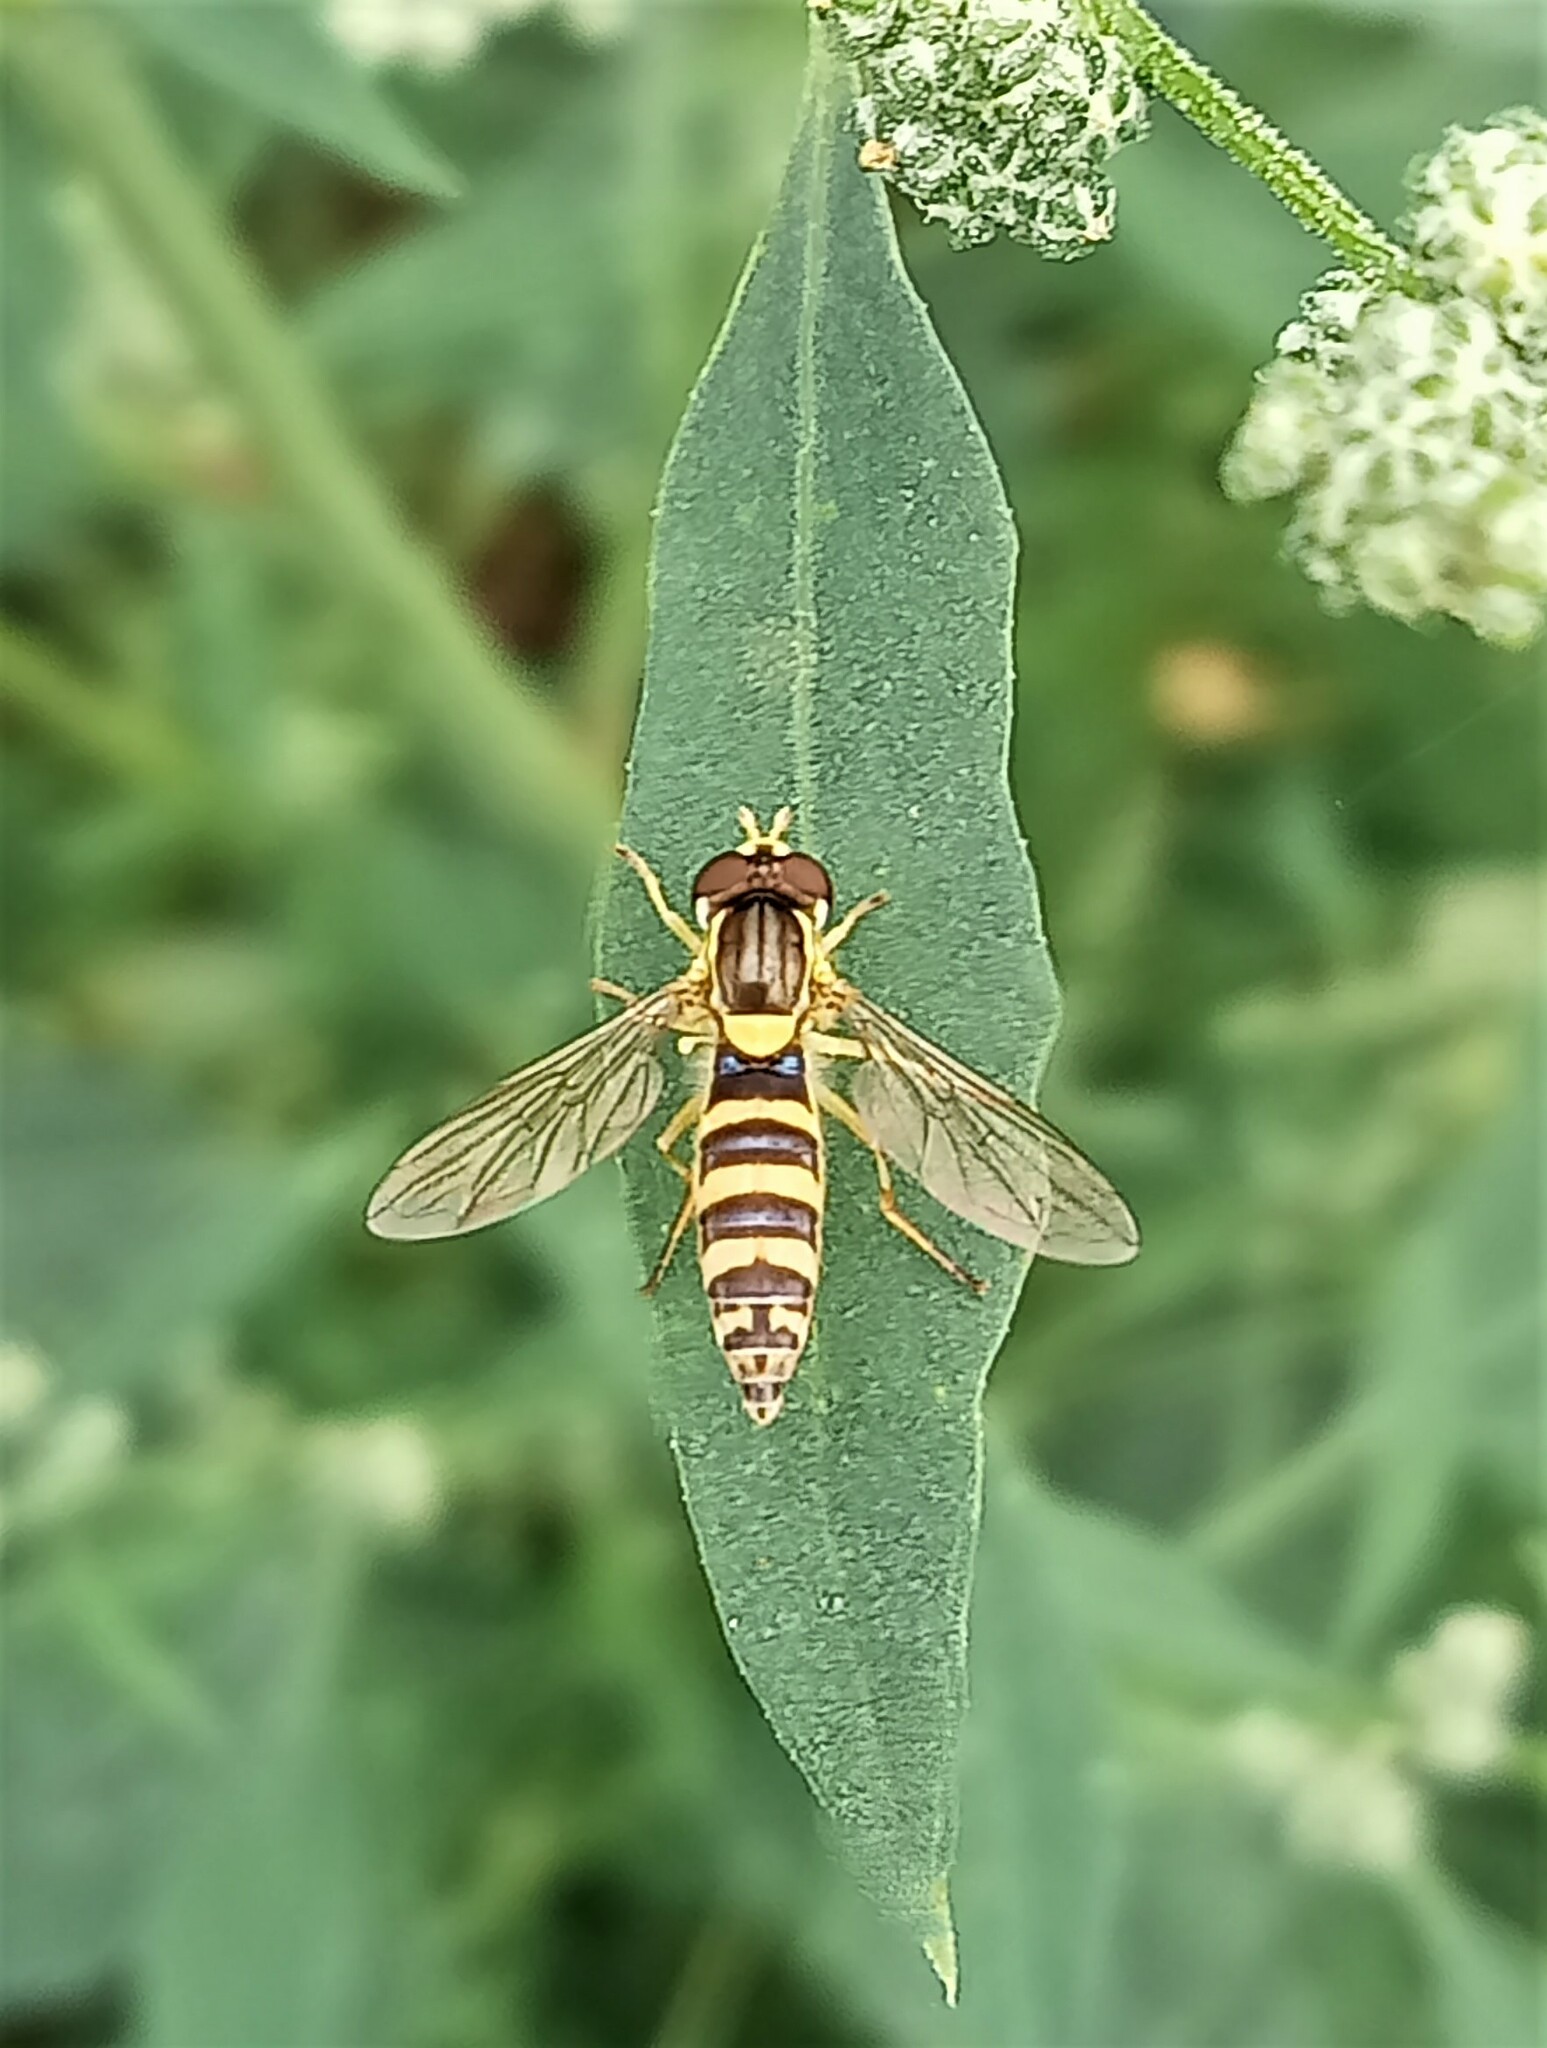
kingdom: Animalia
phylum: Arthropoda
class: Insecta
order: Diptera
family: Syrphidae
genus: Sphaerophoria
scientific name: Sphaerophoria
